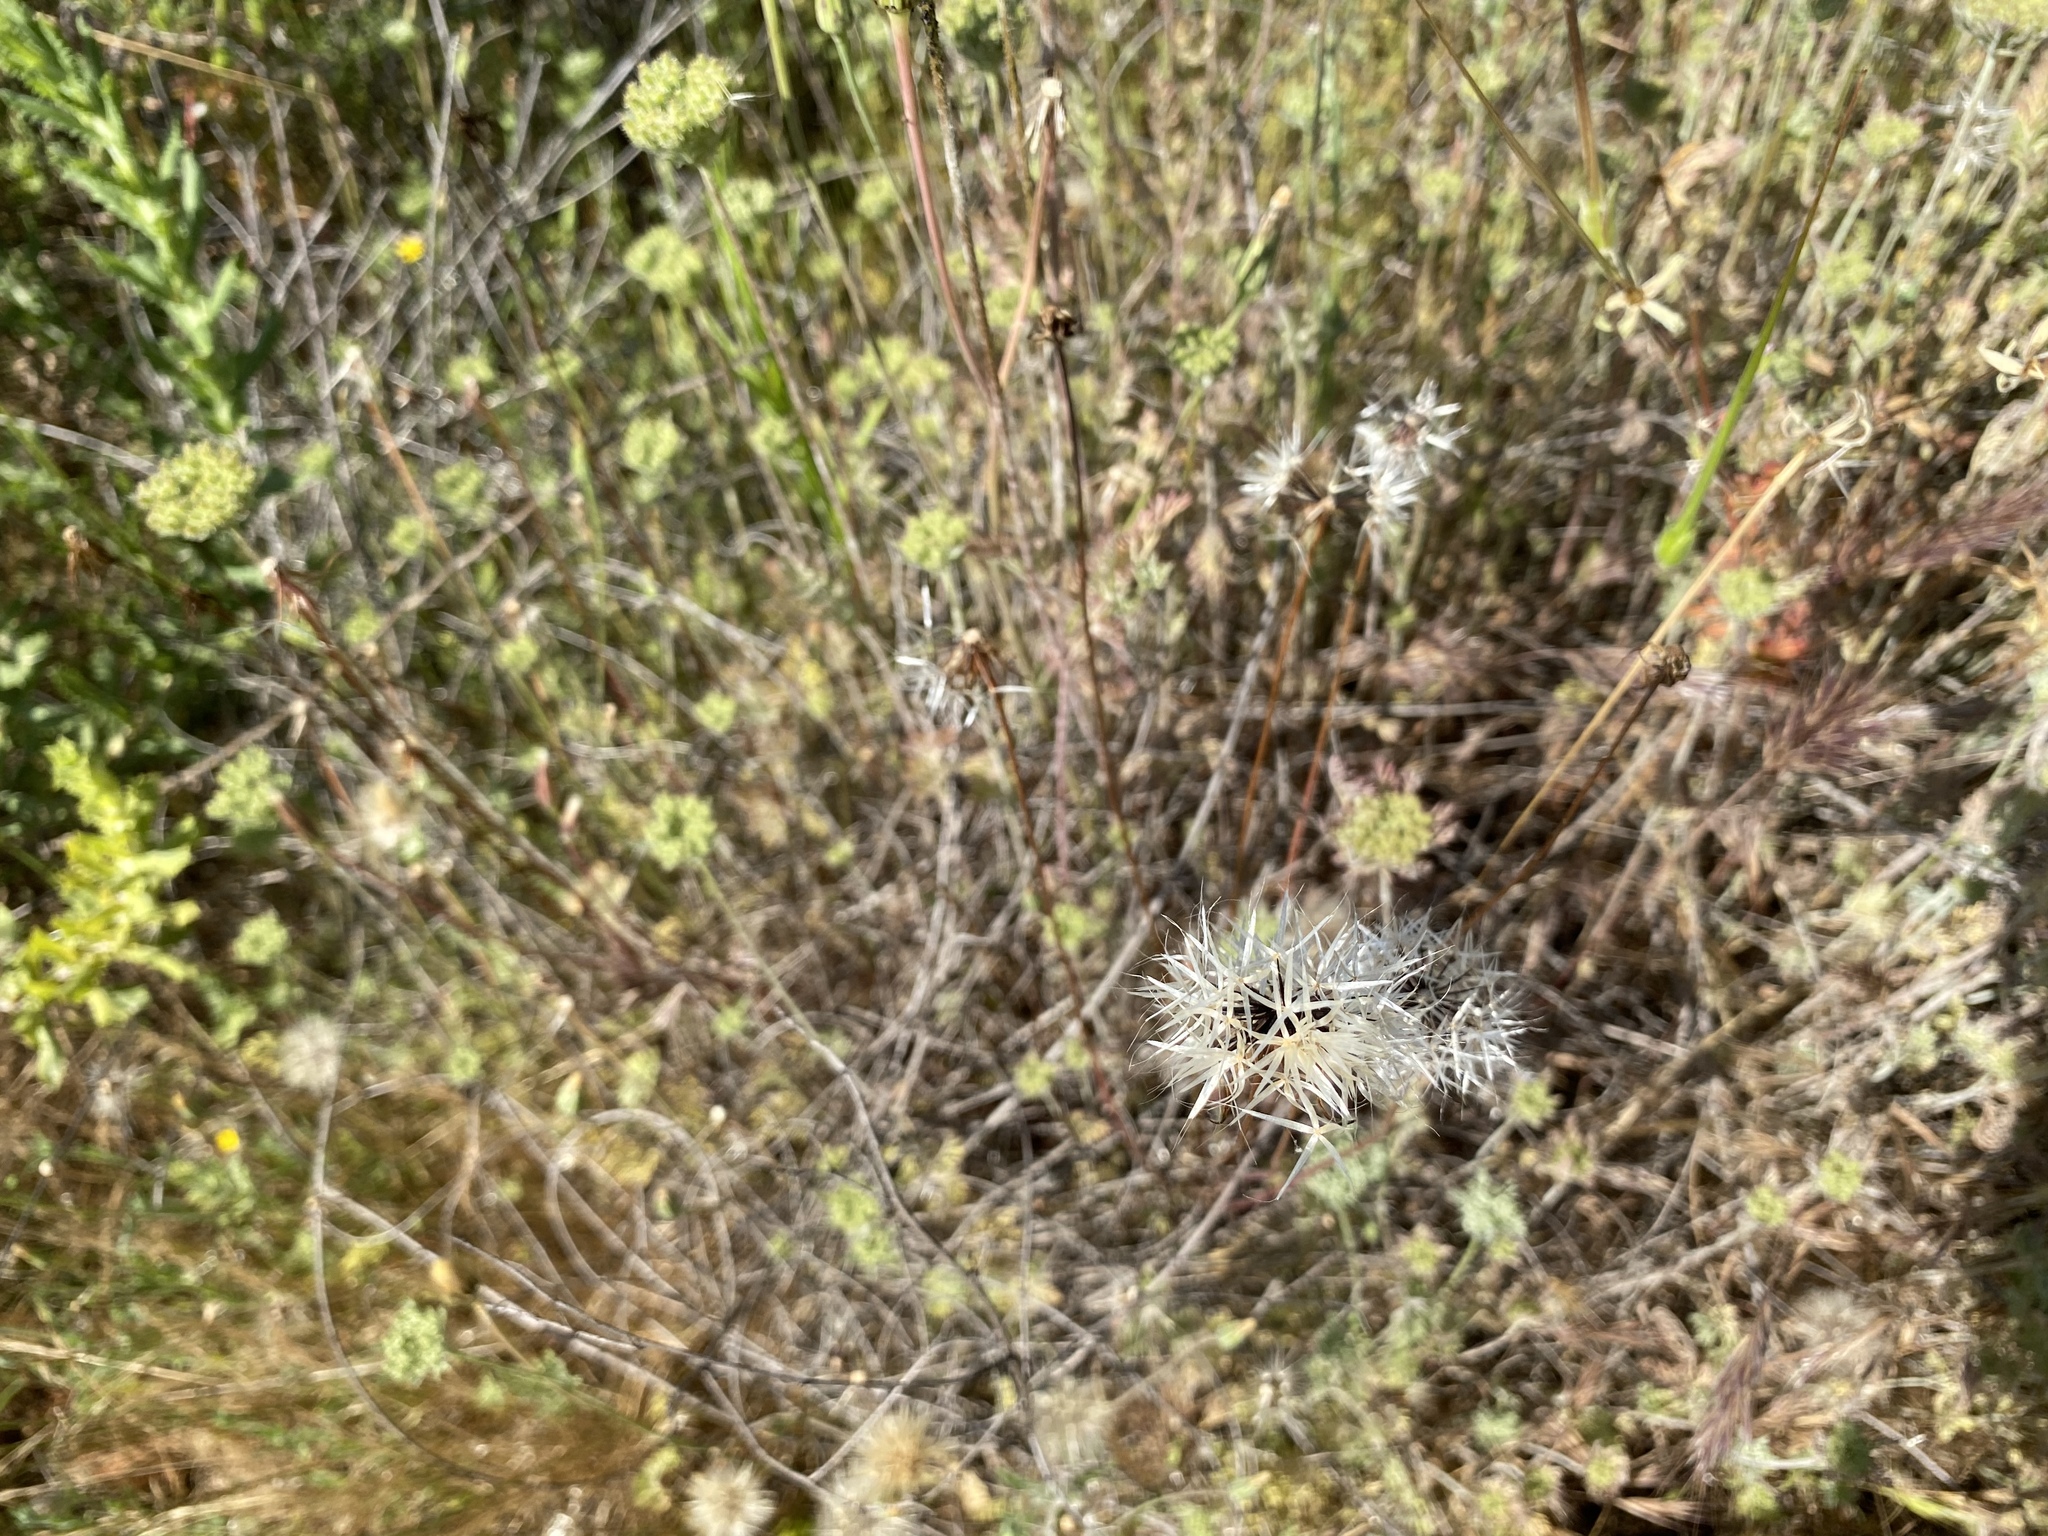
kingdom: Plantae
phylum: Tracheophyta
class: Magnoliopsida
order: Asterales
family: Asteraceae
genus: Microseris
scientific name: Microseris lindleyi
